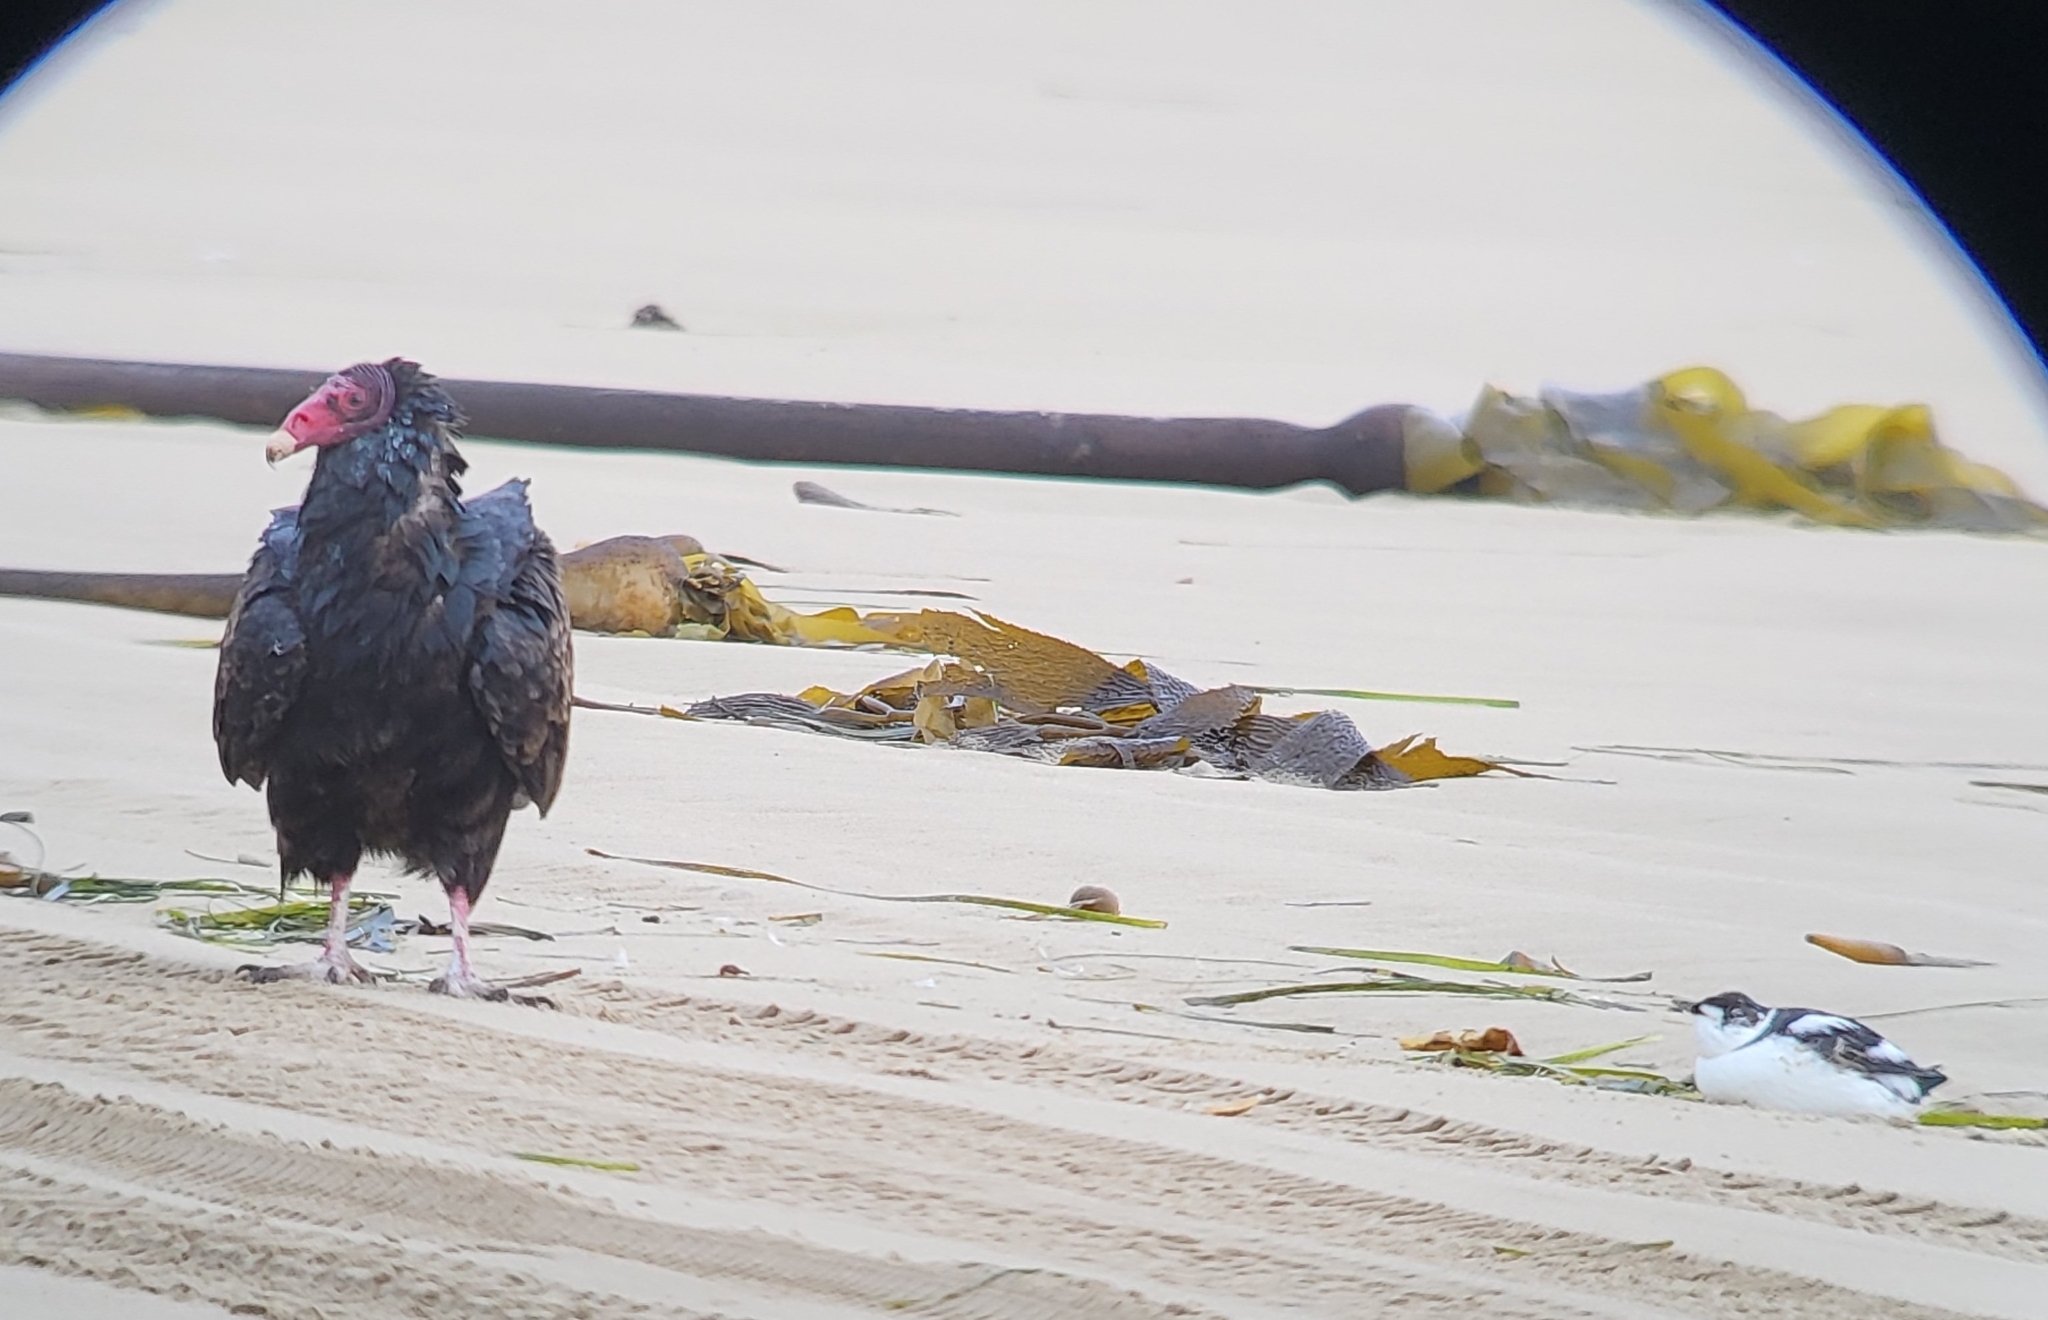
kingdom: Animalia
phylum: Chordata
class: Aves
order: Accipitriformes
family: Cathartidae
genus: Cathartes
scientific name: Cathartes aura
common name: Turkey vulture
